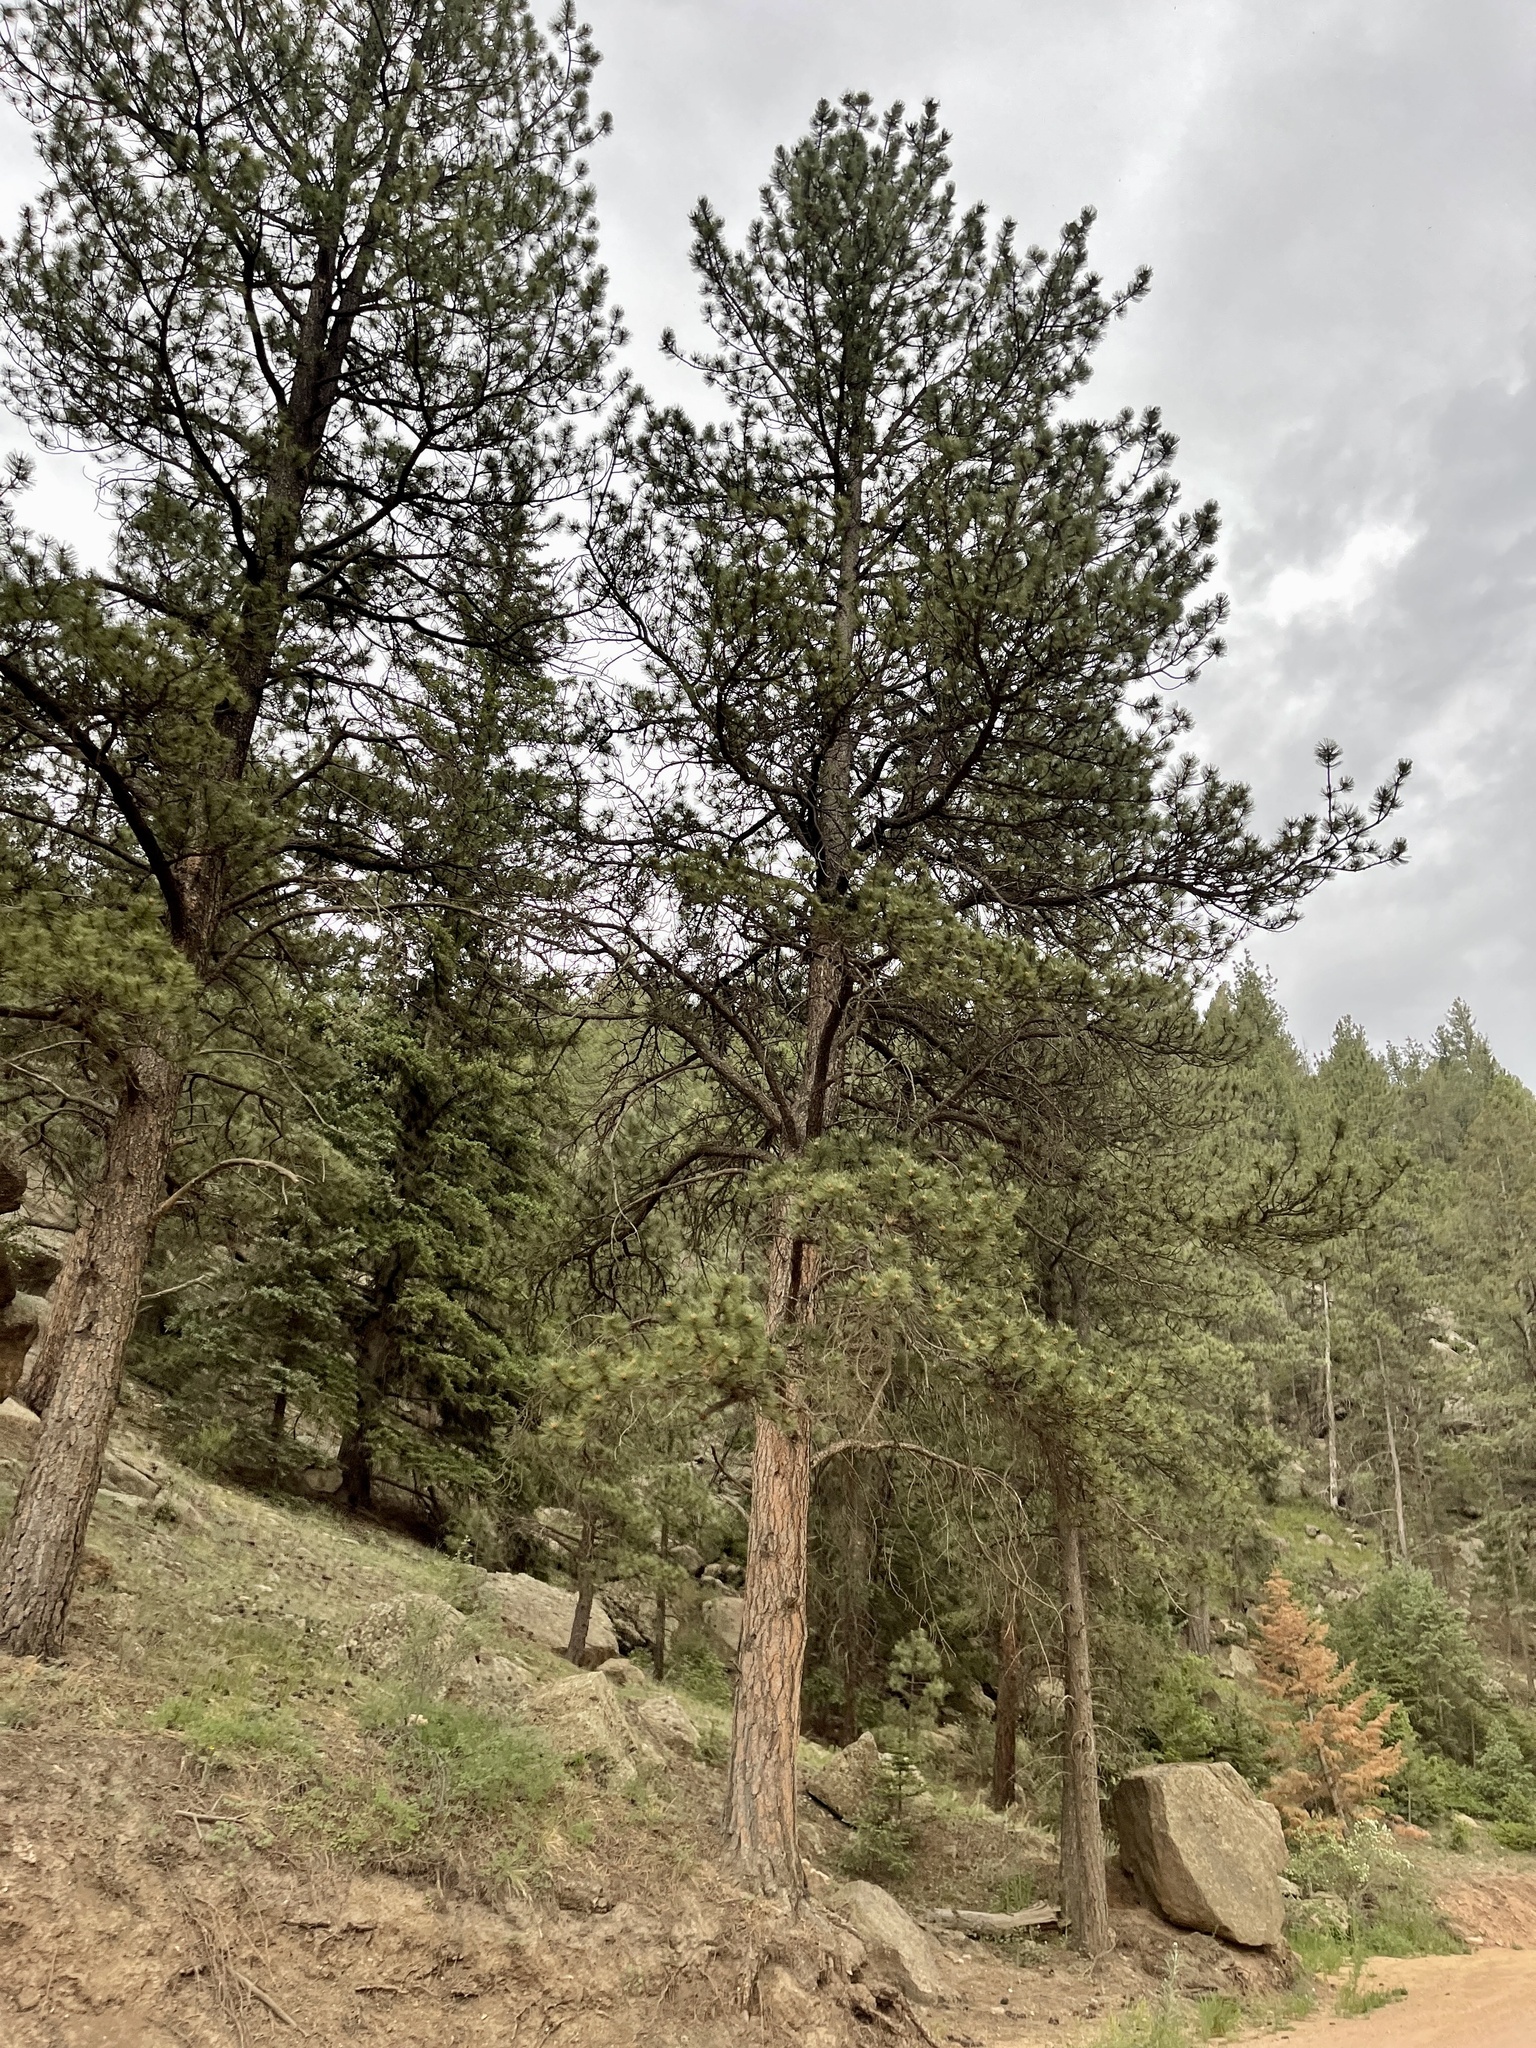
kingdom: Plantae
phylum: Tracheophyta
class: Pinopsida
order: Pinales
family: Pinaceae
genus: Pinus
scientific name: Pinus ponderosa
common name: Western yellow-pine
